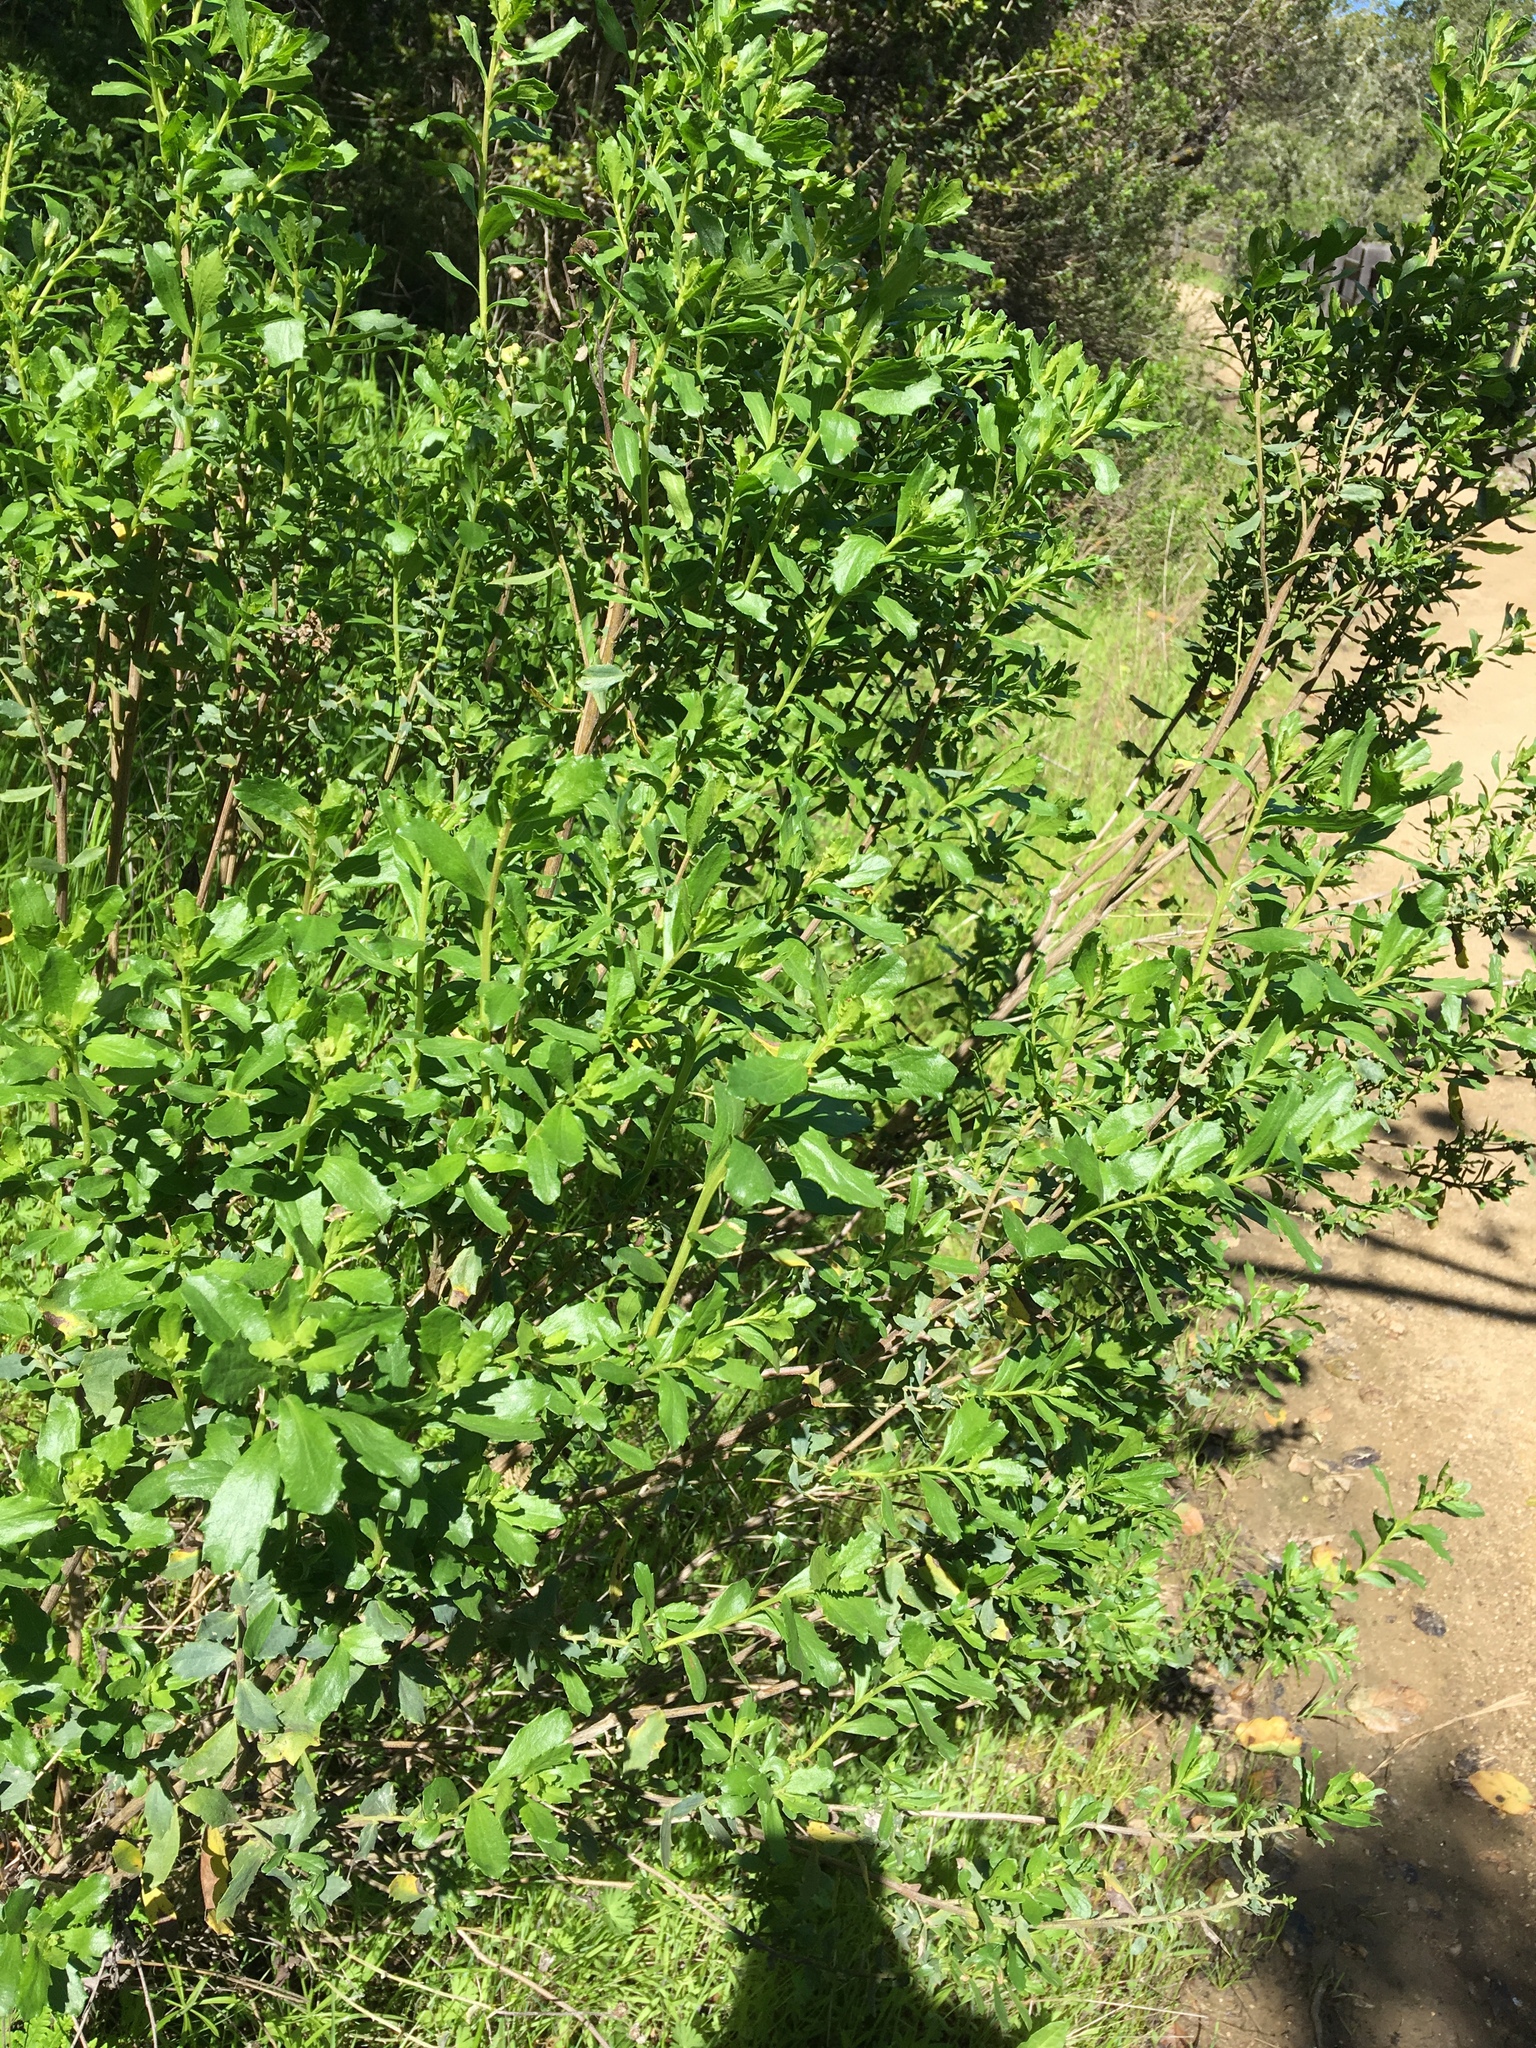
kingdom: Plantae
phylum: Tracheophyta
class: Magnoliopsida
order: Asterales
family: Asteraceae
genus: Baccharis
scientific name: Baccharis pilularis
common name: Coyotebrush
